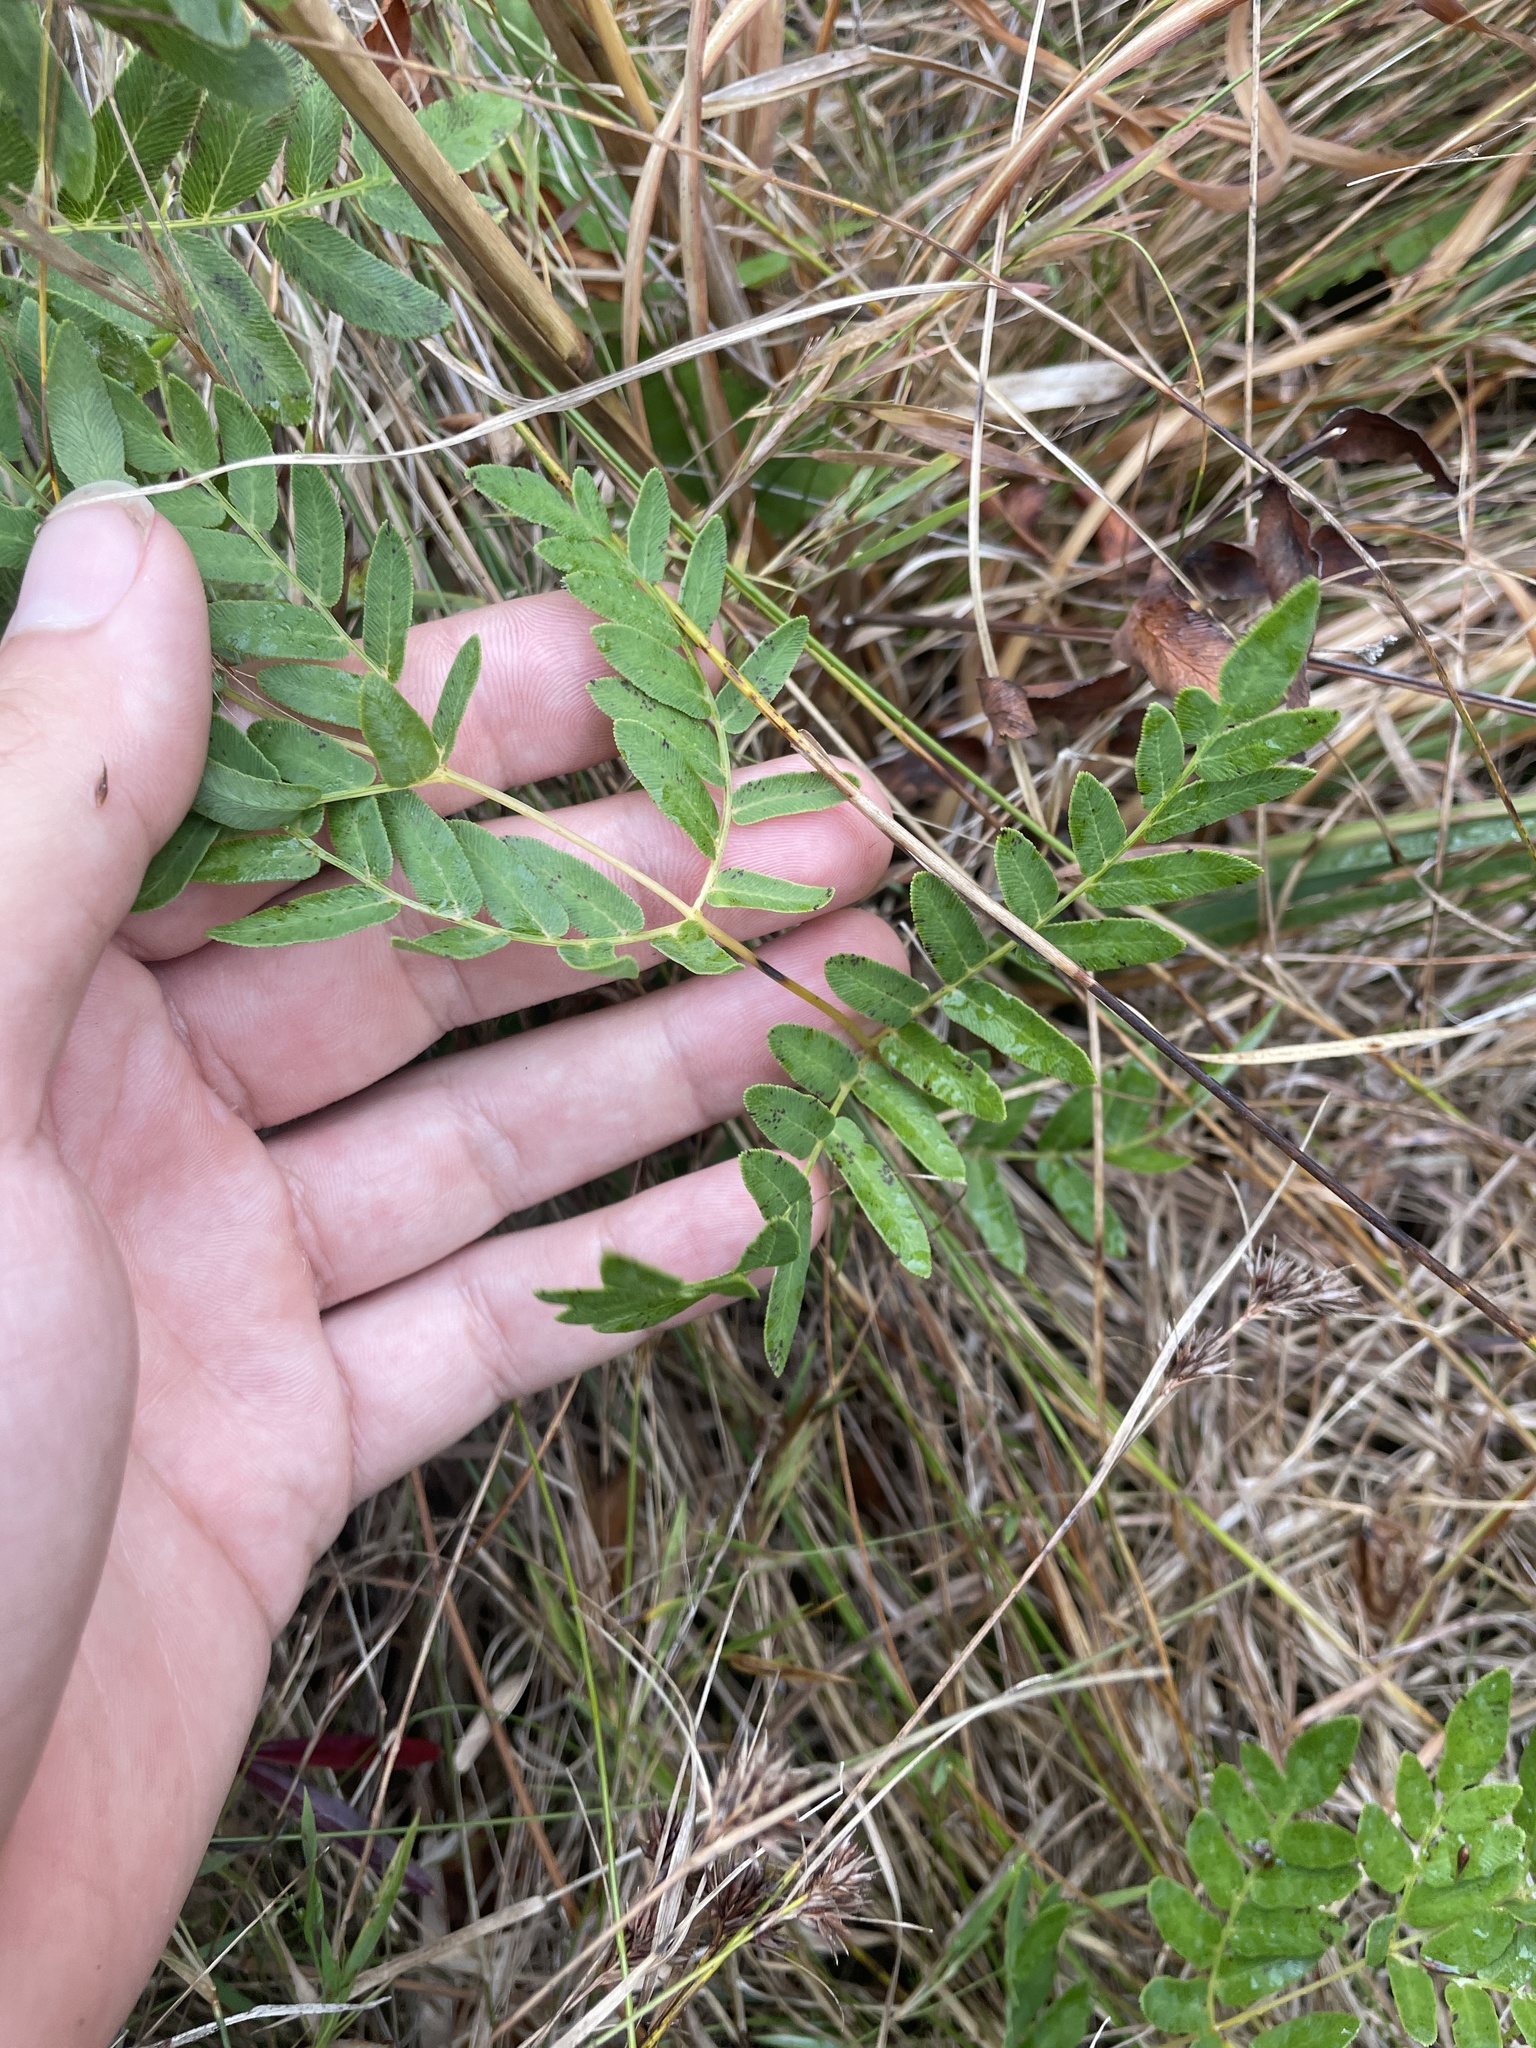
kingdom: Plantae
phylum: Tracheophyta
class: Polypodiopsida
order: Osmundales
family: Osmundaceae
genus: Osmunda
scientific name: Osmunda spectabilis
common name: American royal fern
